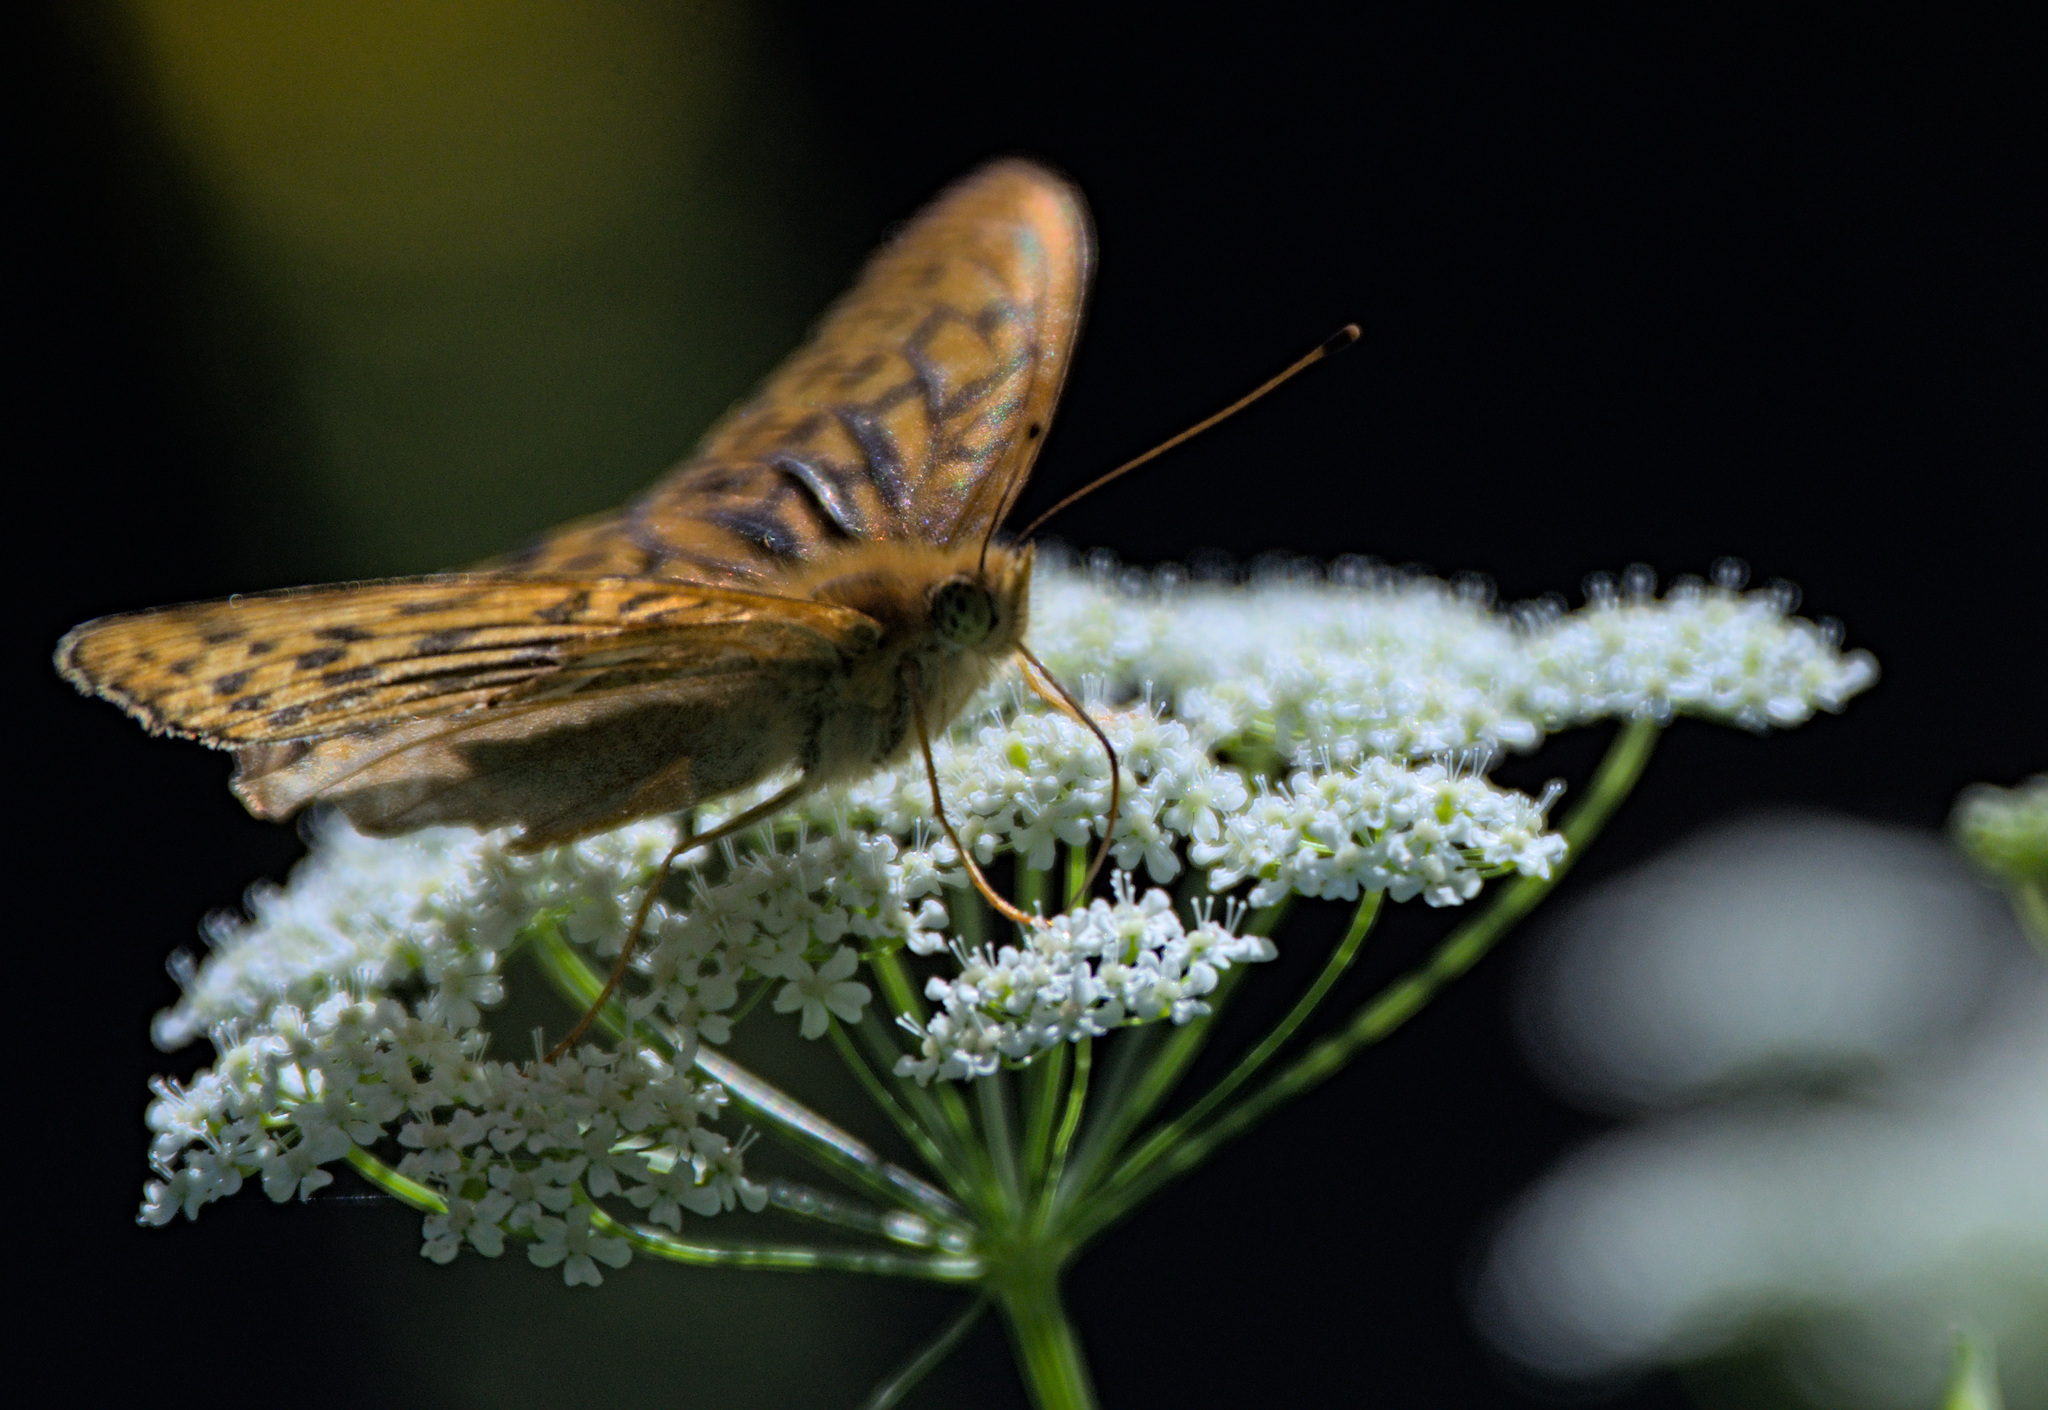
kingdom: Animalia
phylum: Arthropoda
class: Insecta
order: Lepidoptera
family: Nymphalidae
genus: Argynnis
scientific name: Argynnis paphia
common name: Silver-washed fritillary
